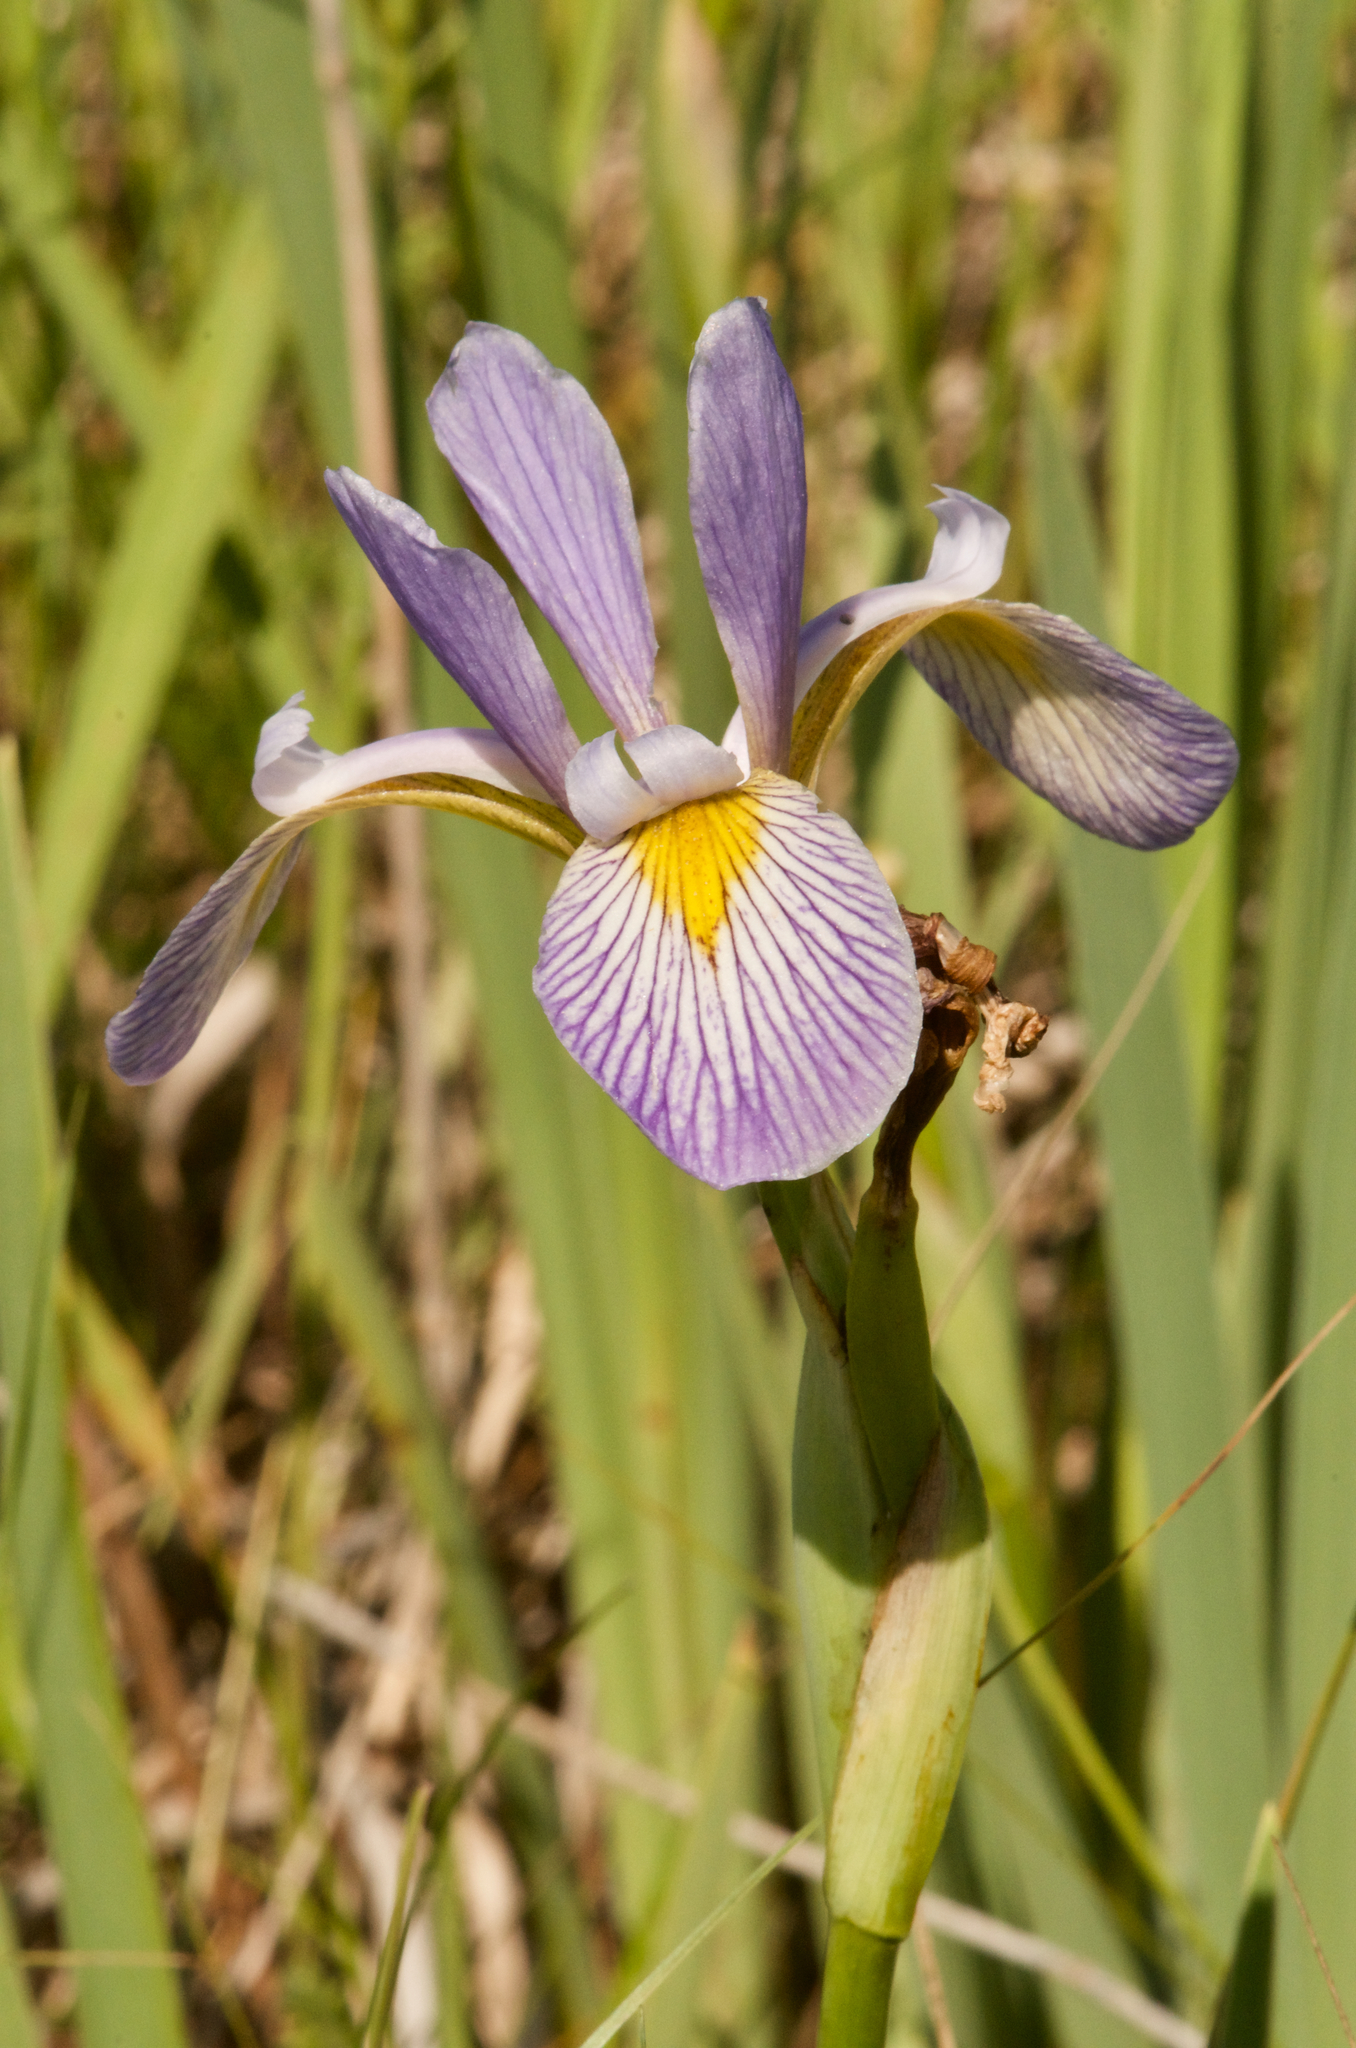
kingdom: Plantae
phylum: Tracheophyta
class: Liliopsida
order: Asparagales
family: Iridaceae
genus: Iris
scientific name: Iris virginica
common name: Southern blue flag
